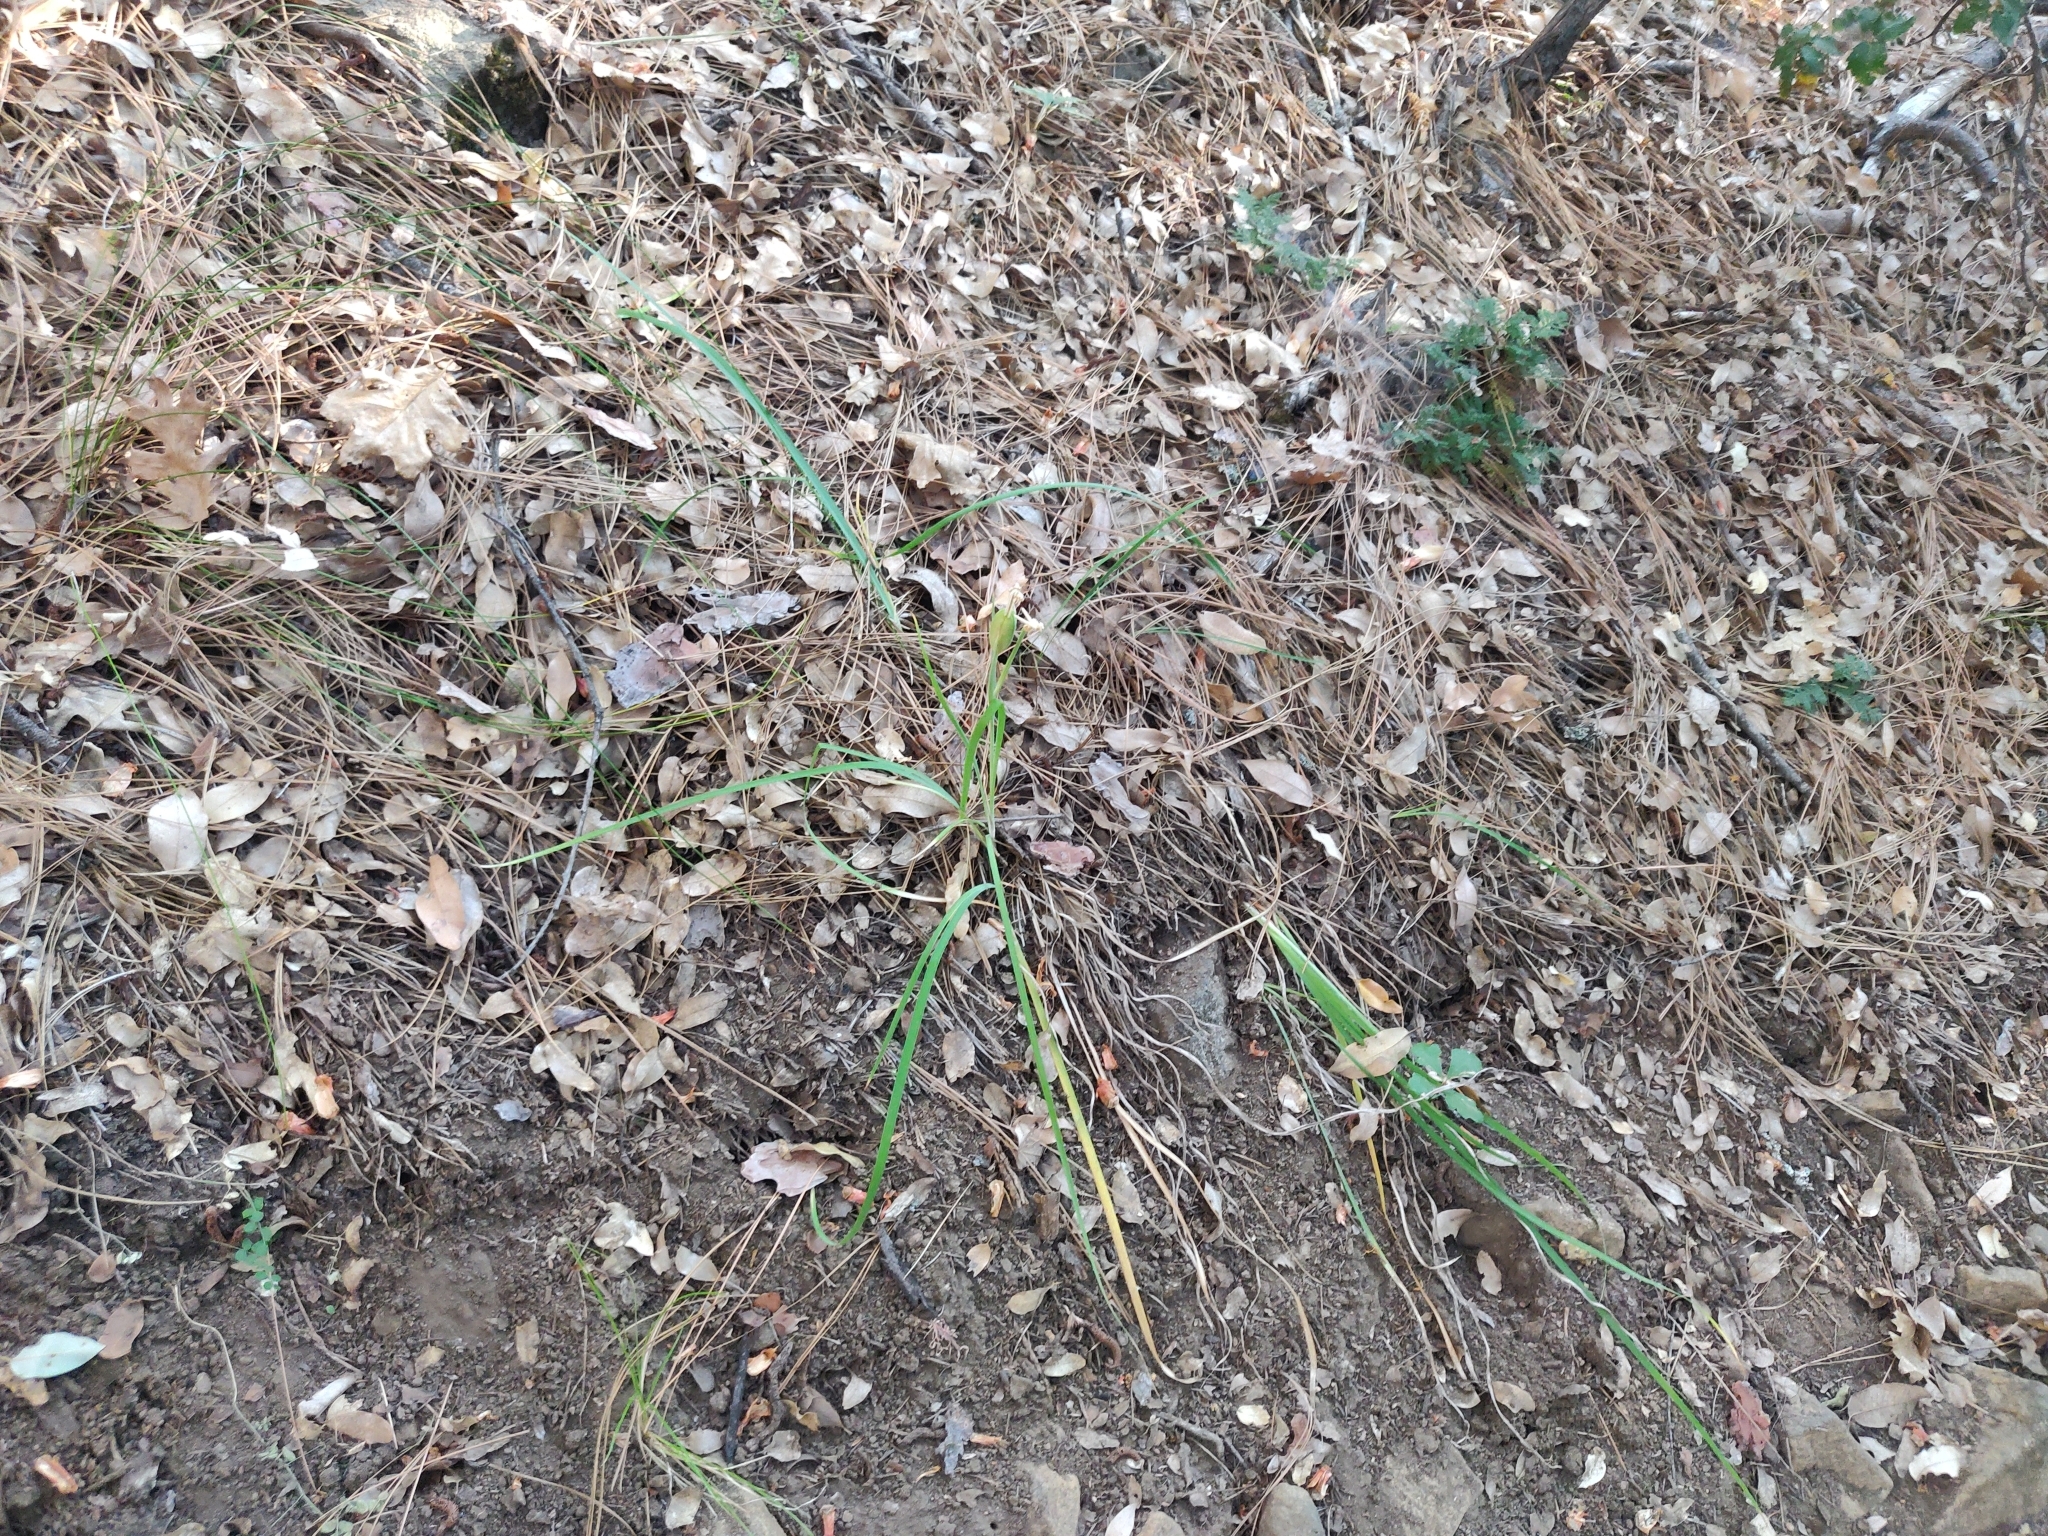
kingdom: Plantae
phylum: Tracheophyta
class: Liliopsida
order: Asparagales
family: Iridaceae
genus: Iris
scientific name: Iris hartwegii
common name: Sierra iris
